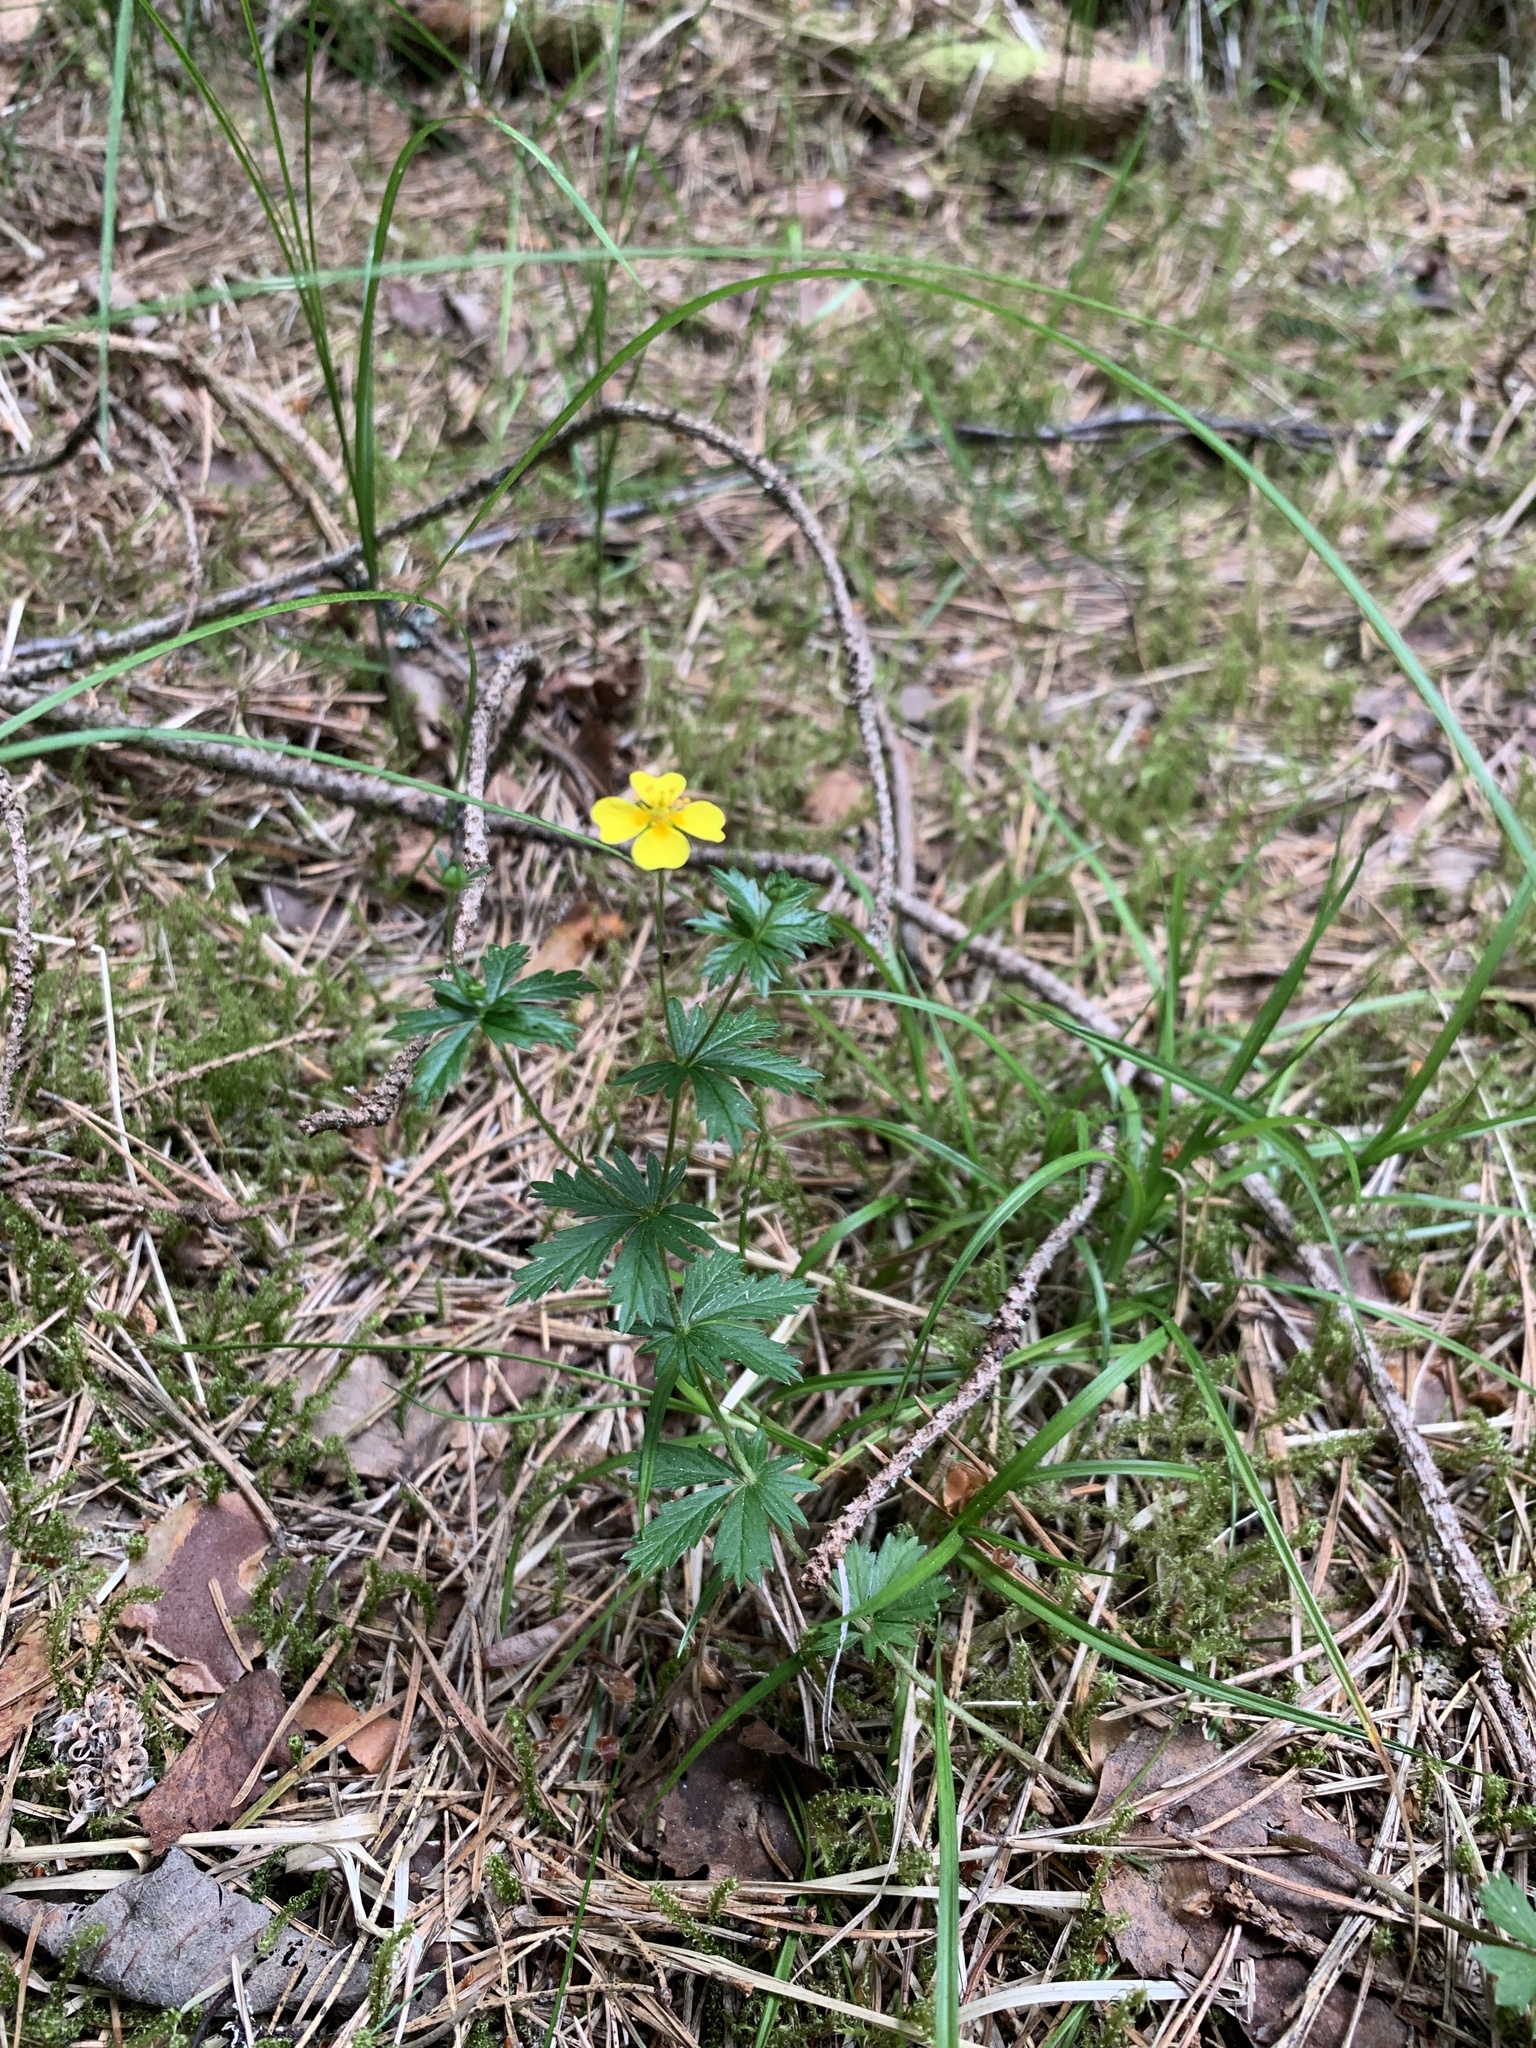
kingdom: Plantae
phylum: Tracheophyta
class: Magnoliopsida
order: Rosales
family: Rosaceae
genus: Potentilla
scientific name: Potentilla erecta
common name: Tormentil
